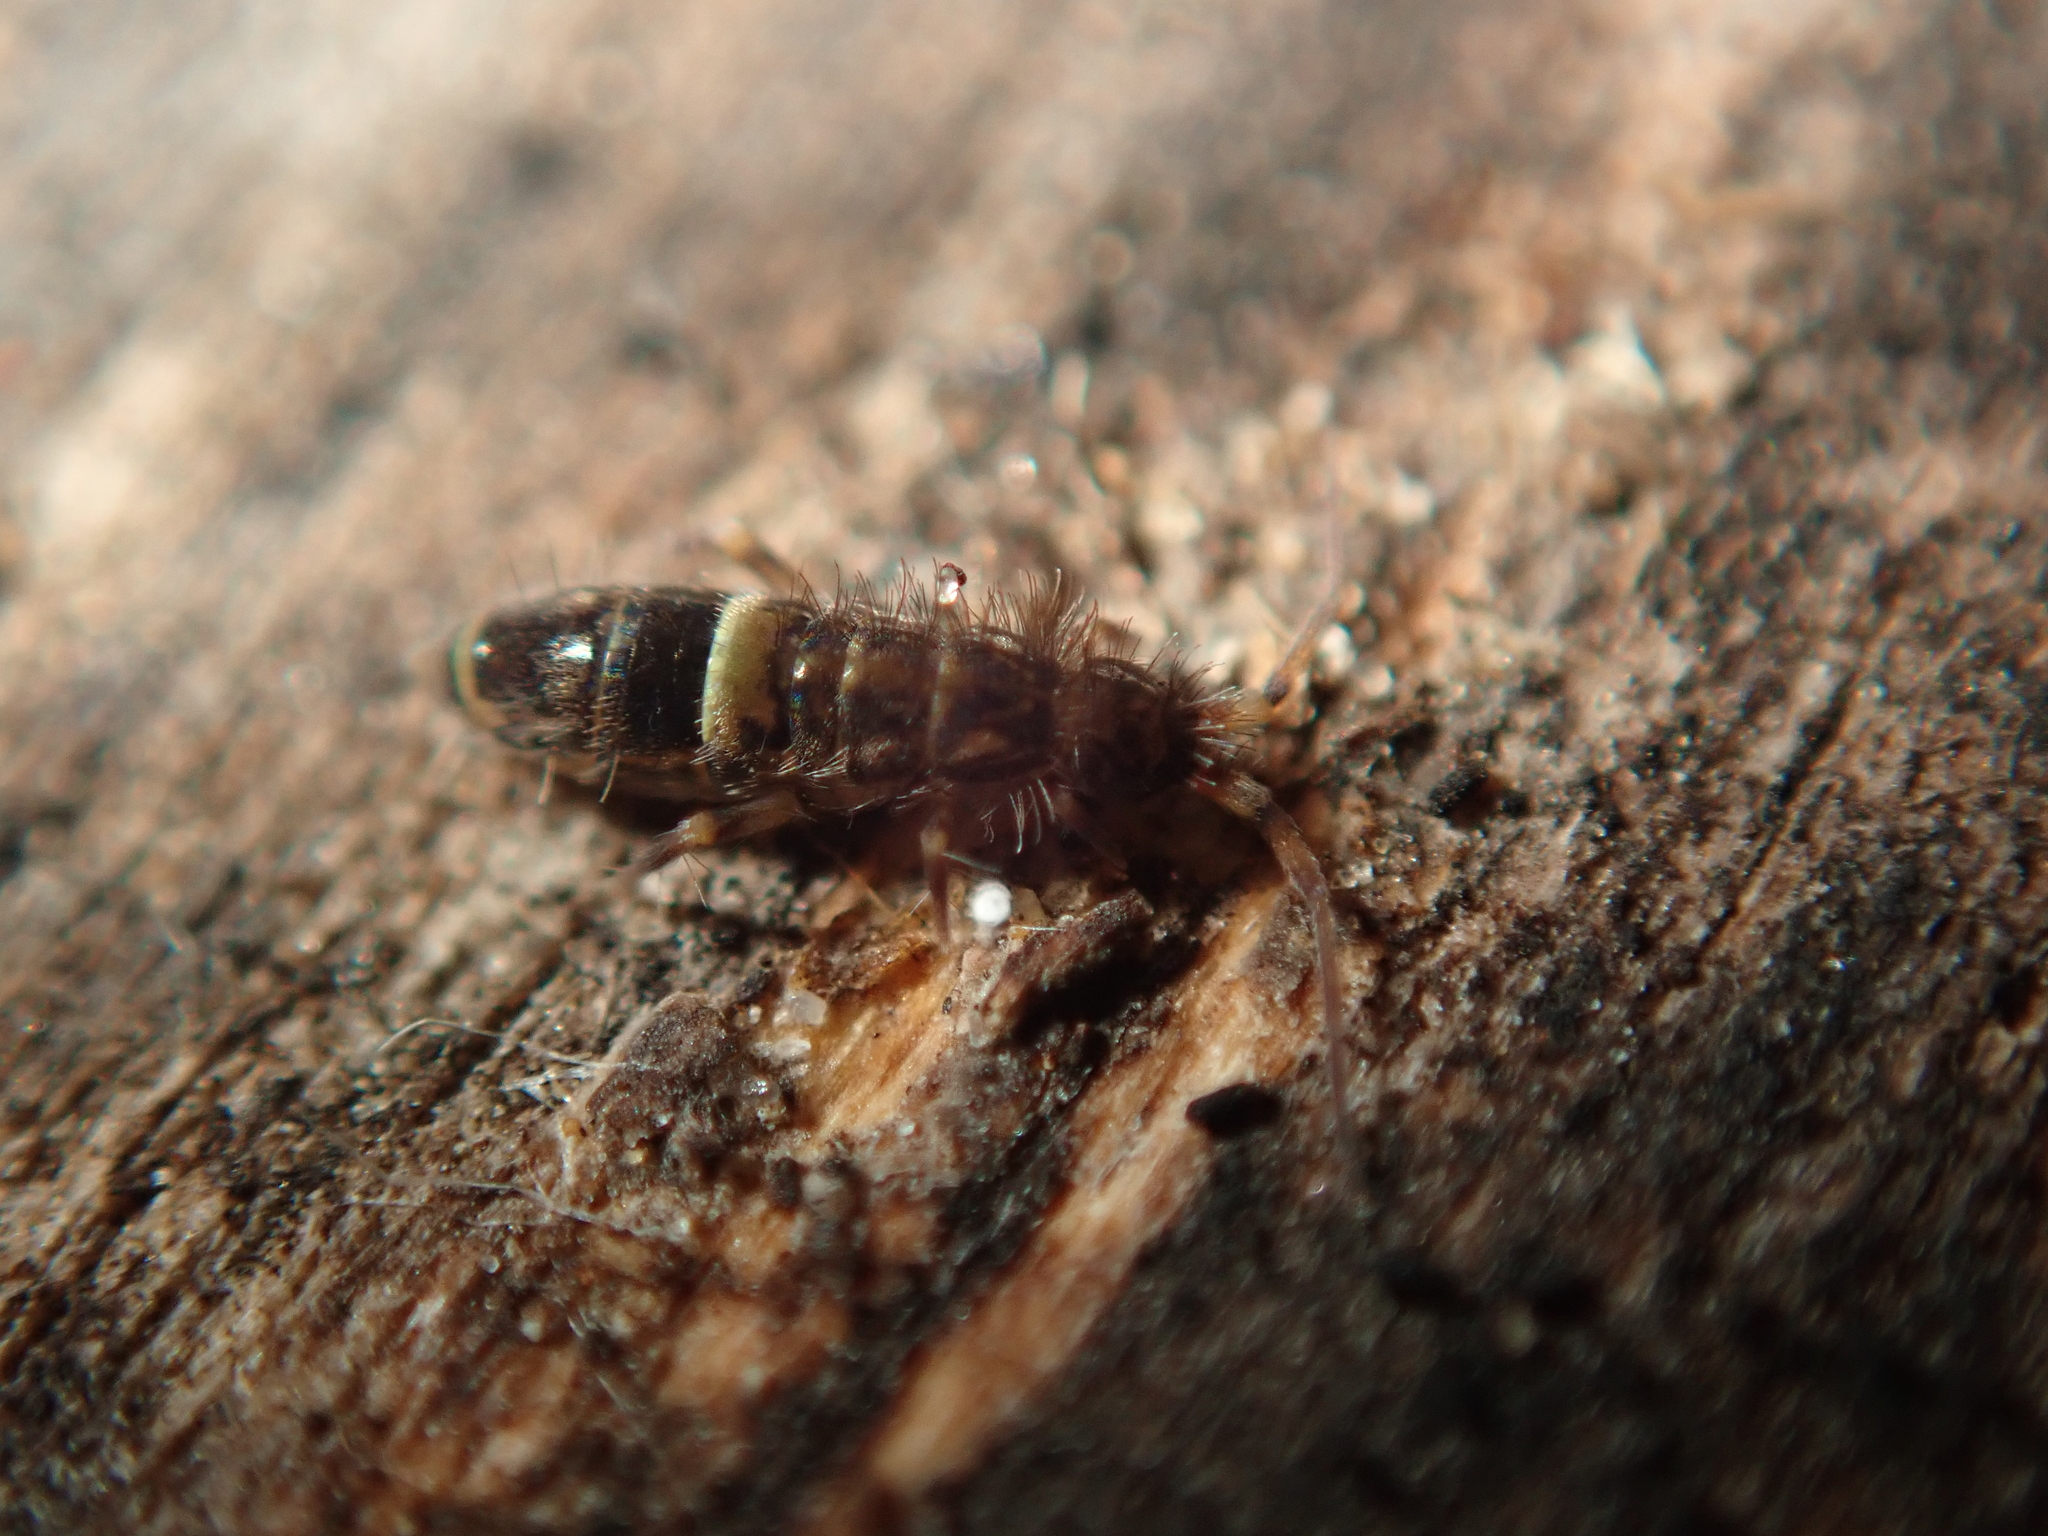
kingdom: Animalia
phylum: Arthropoda
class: Collembola
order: Entomobryomorpha
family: Orchesellidae
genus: Orchesella
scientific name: Orchesella cincta
